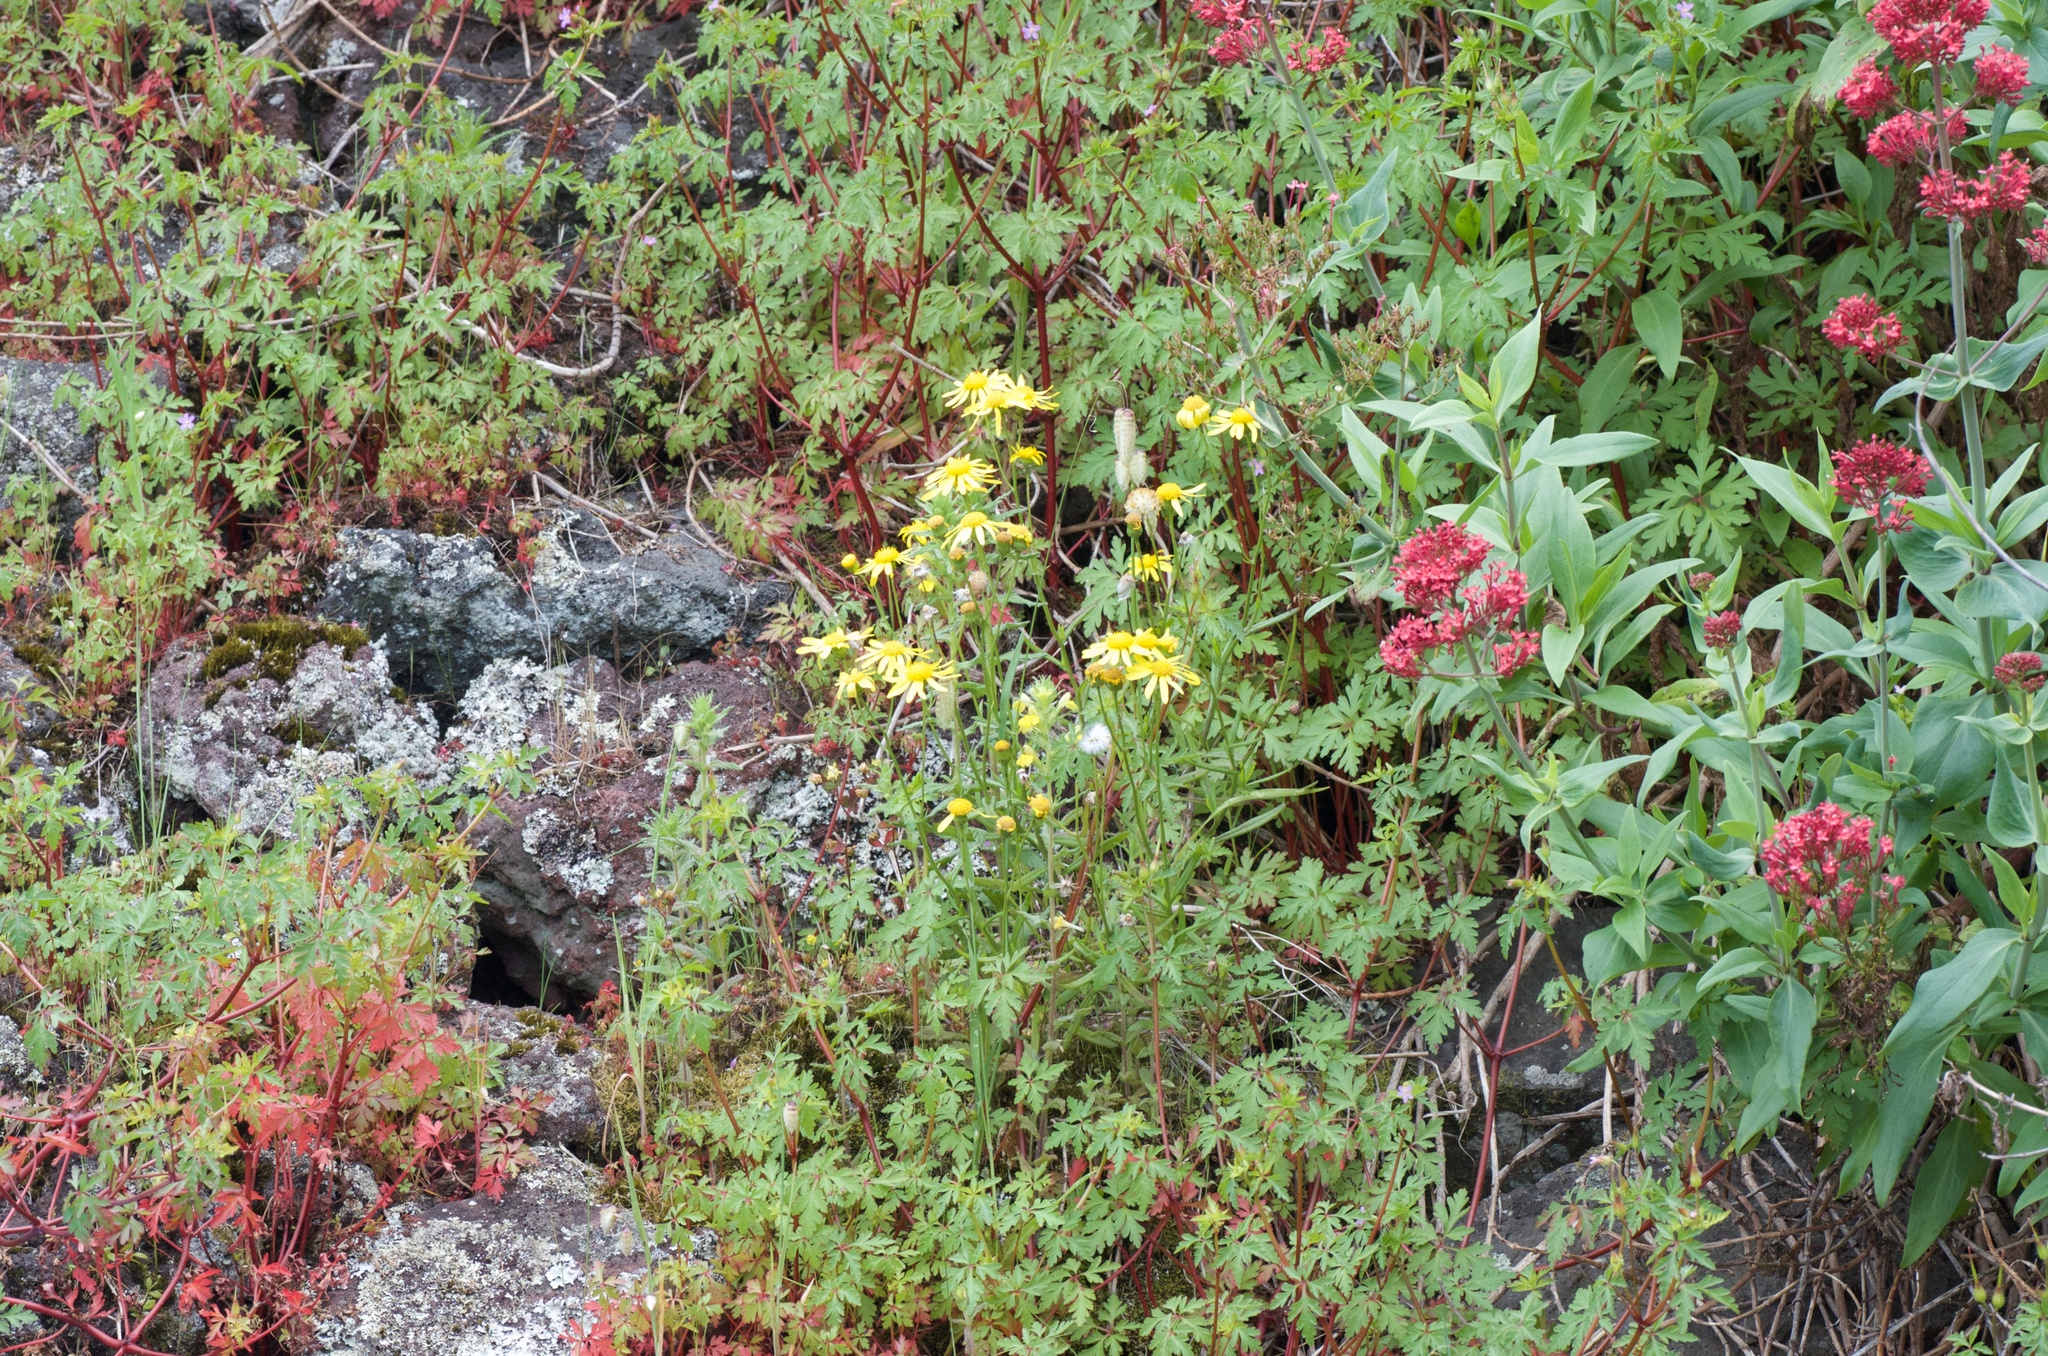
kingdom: Plantae
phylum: Tracheophyta
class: Magnoliopsida
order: Asterales
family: Asteraceae
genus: Senecio
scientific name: Senecio skirrhodon
